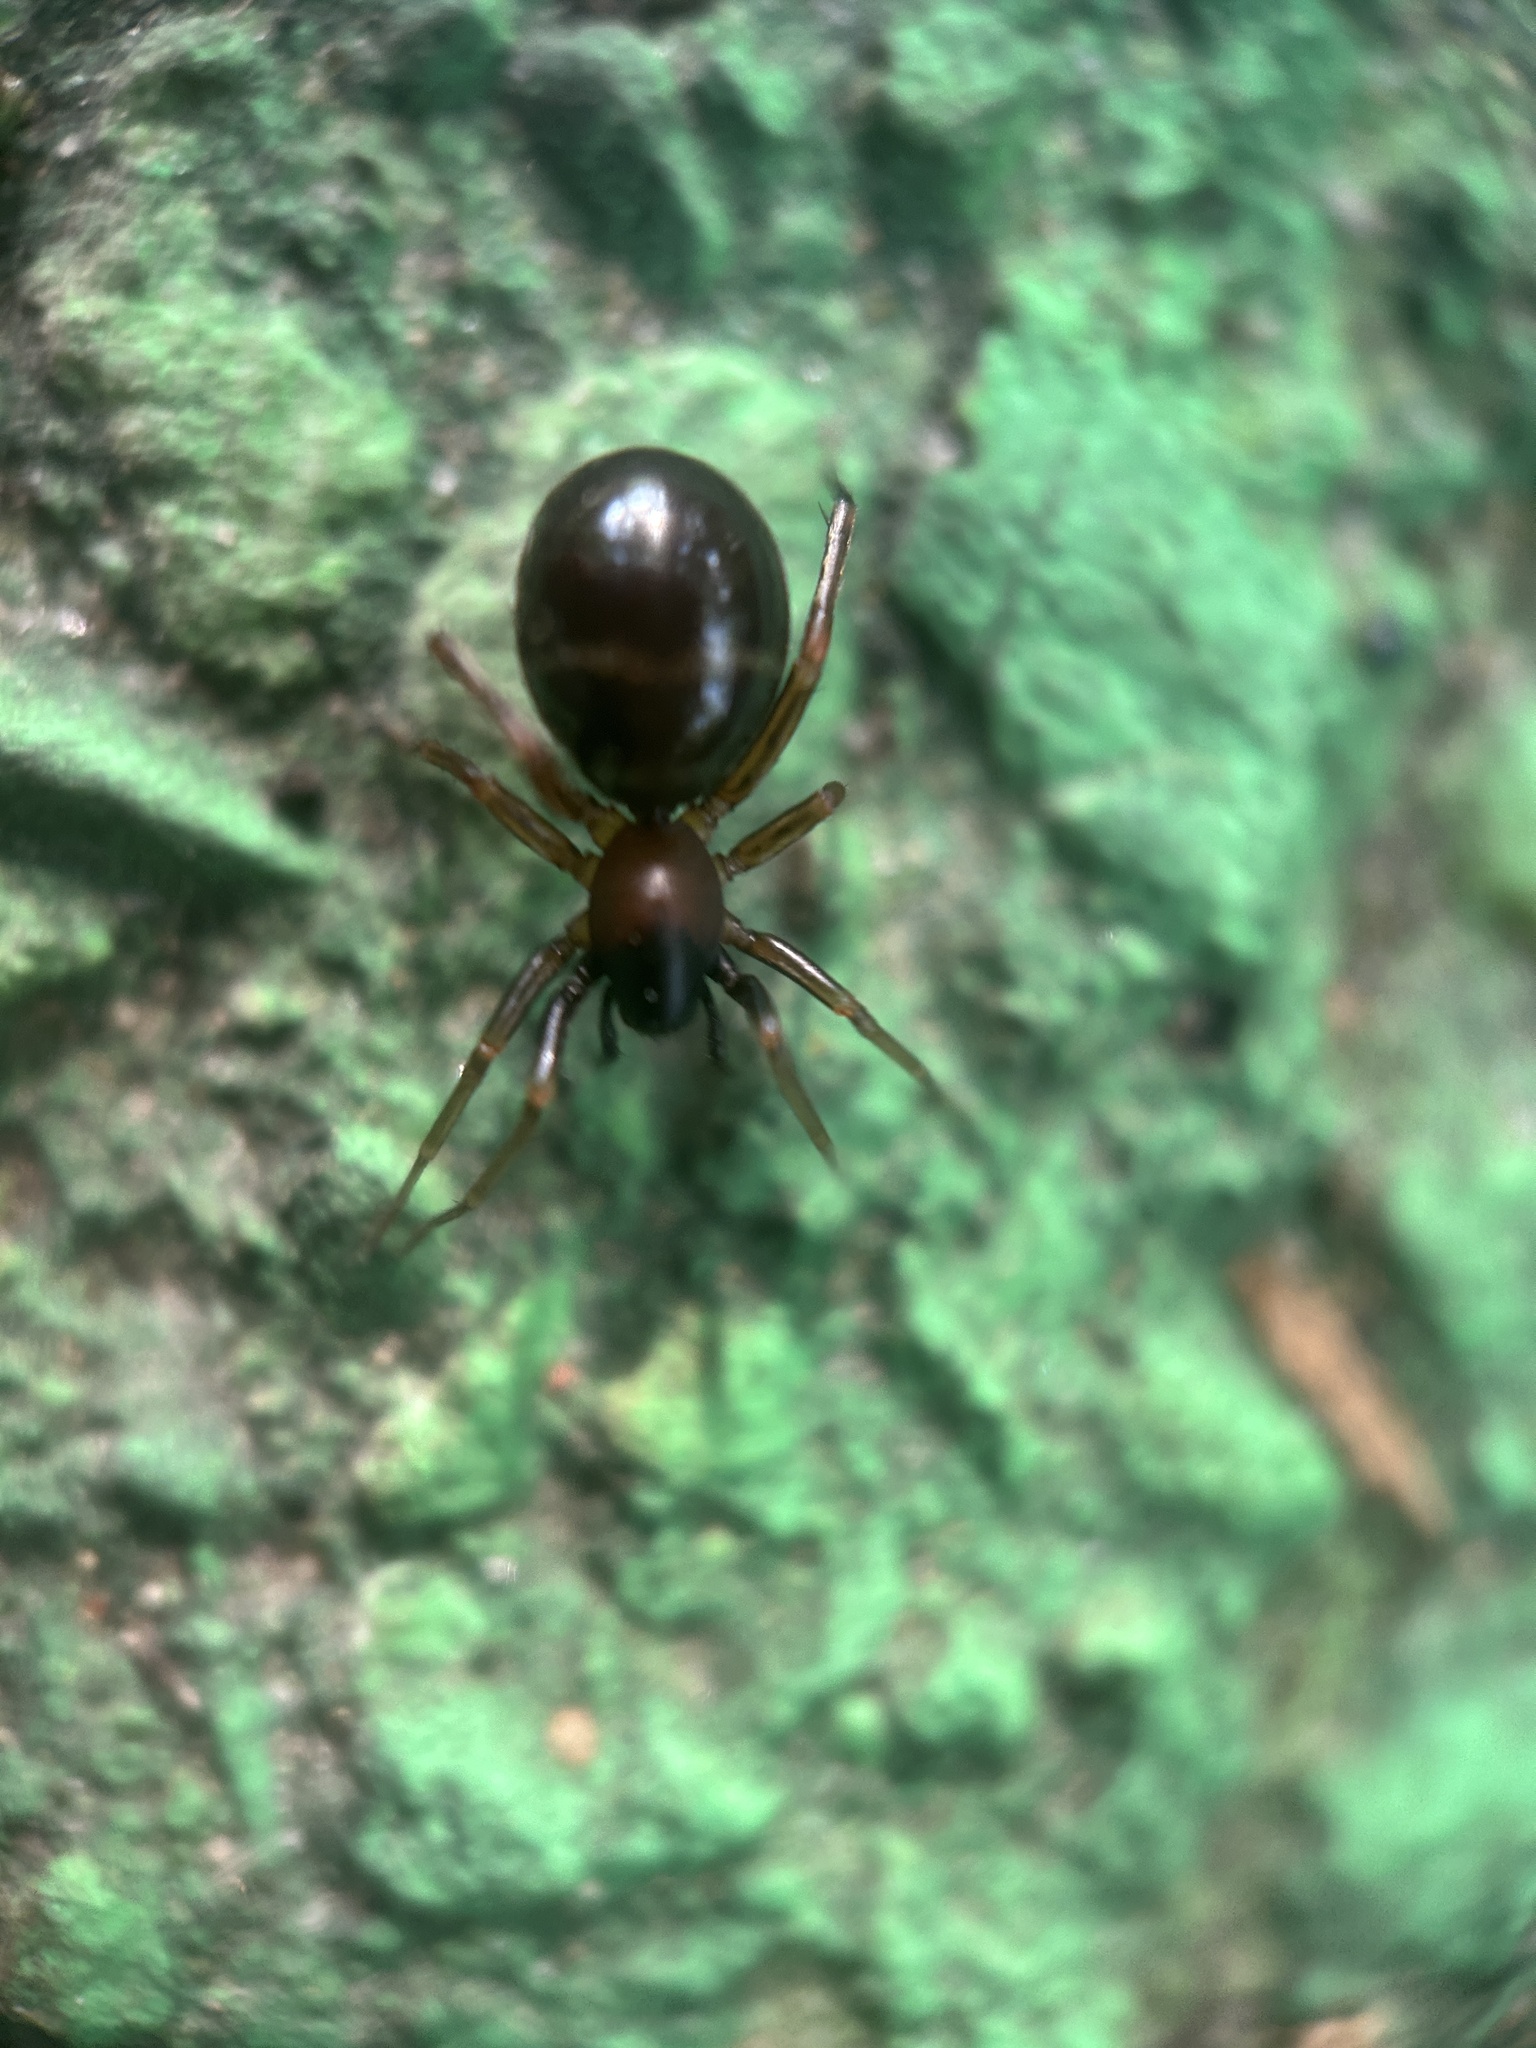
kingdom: Animalia
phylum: Arthropoda
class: Arachnida
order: Araneae
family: Corinnidae
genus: Castianeira
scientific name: Castianeira cingulata
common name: Two-banded ant-mimic sac spider
